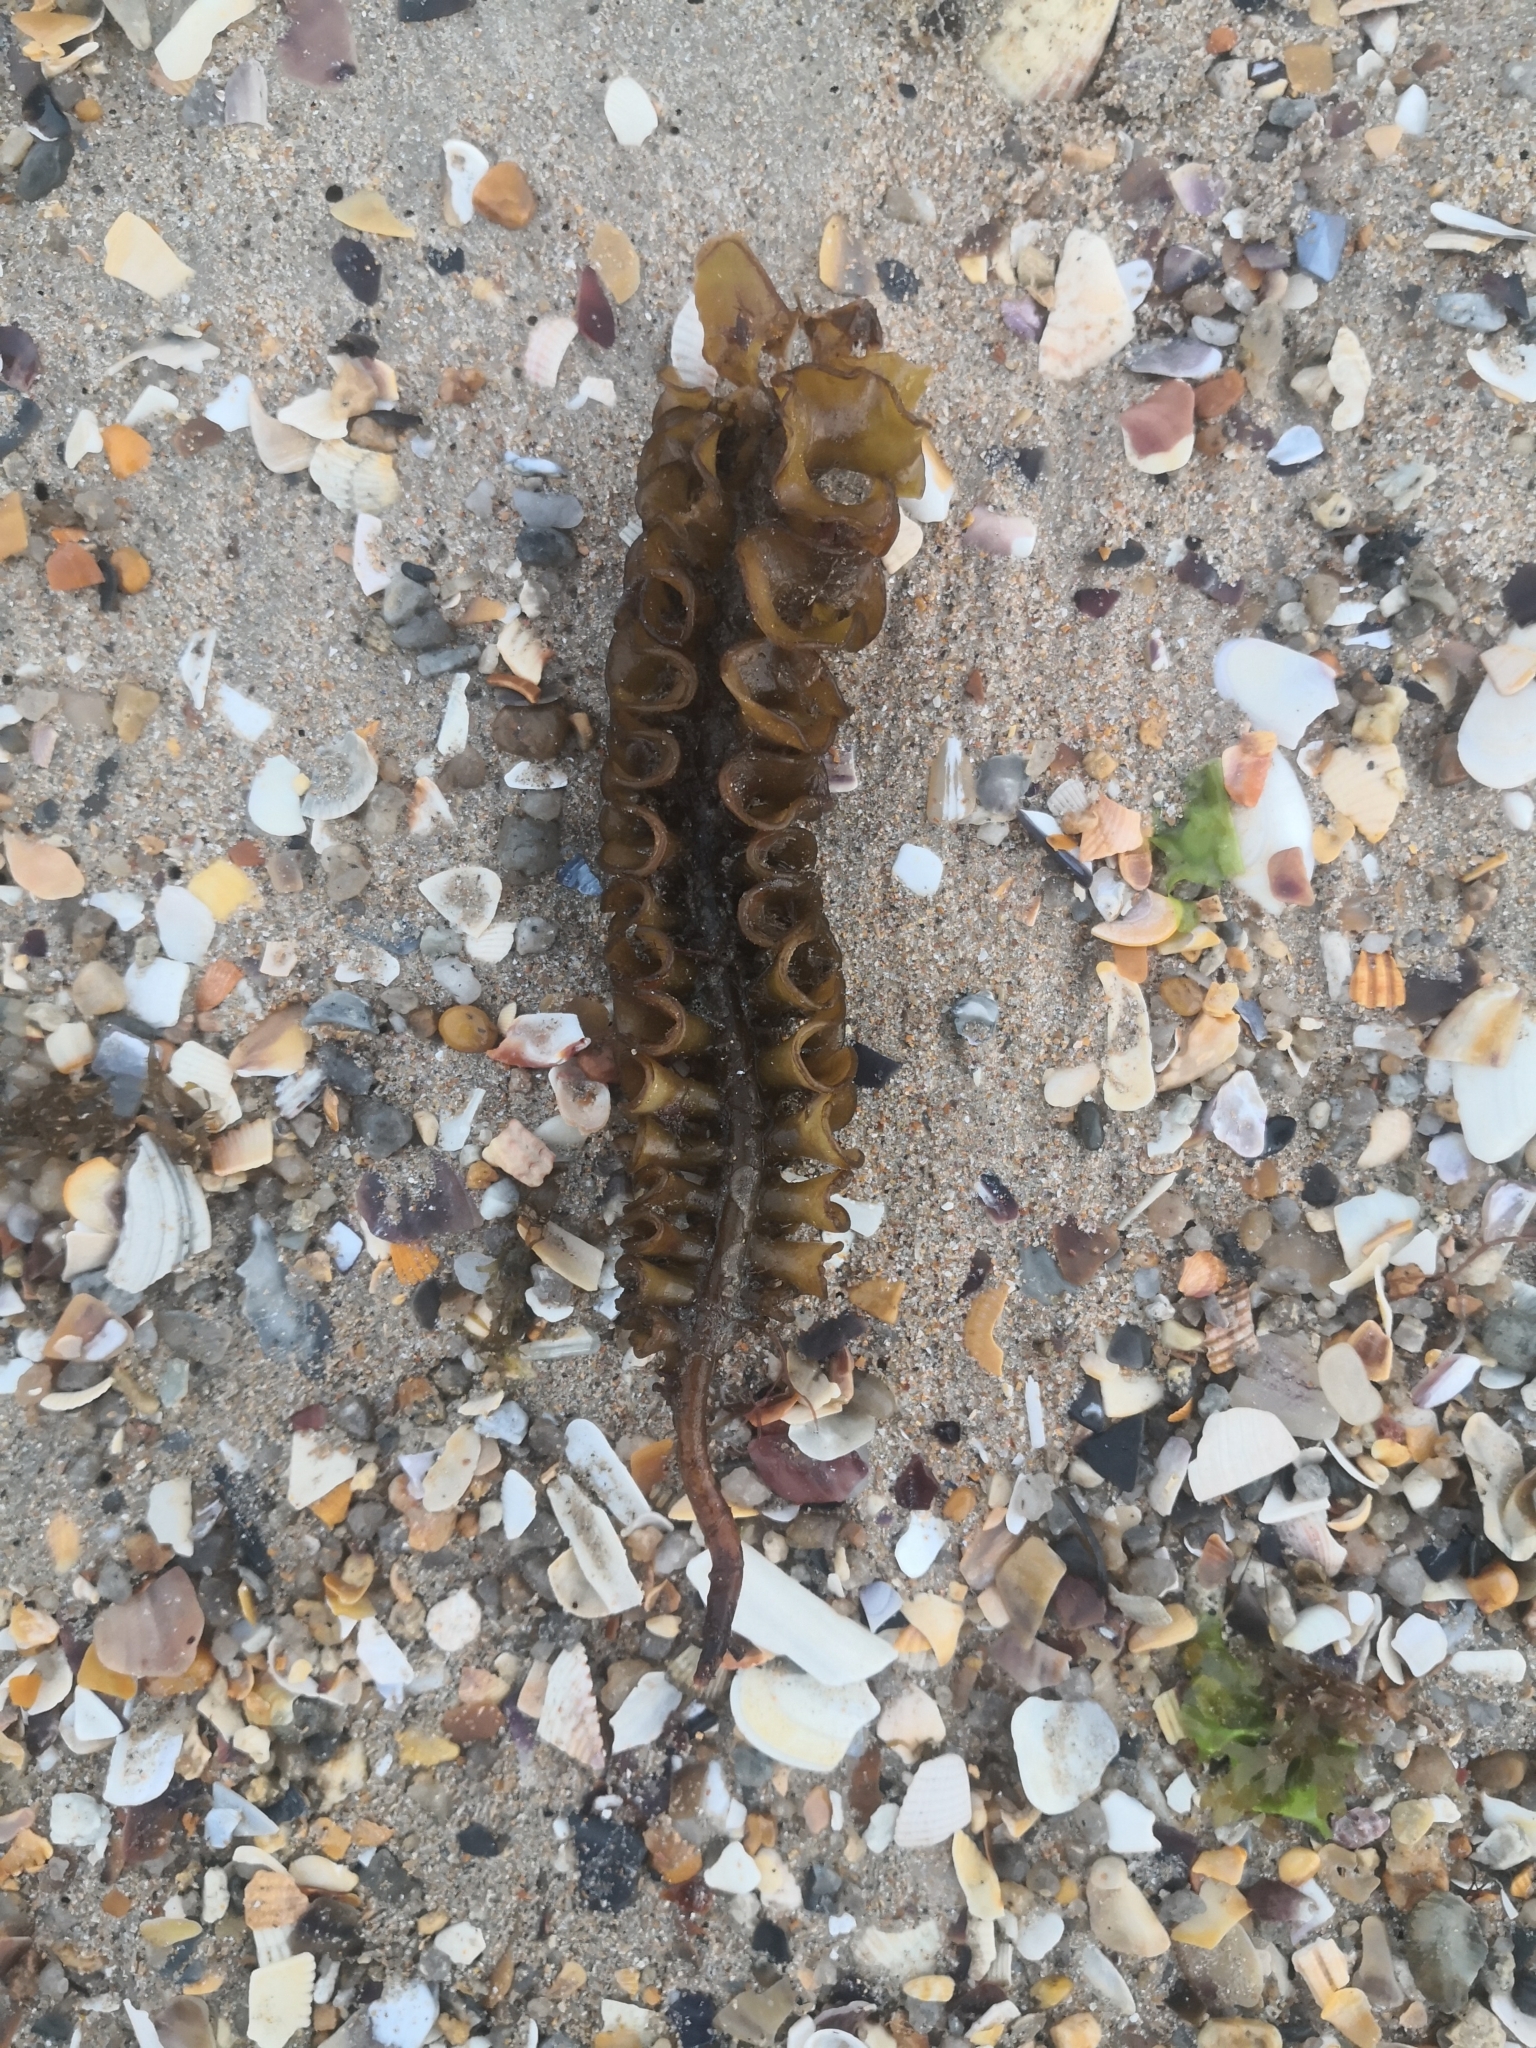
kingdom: Chromista
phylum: Ochrophyta
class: Phaeophyceae
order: Tilopteridales
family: Phyllariaceae
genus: Saccorhiza
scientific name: Saccorhiza polyschides
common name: Furbelows
